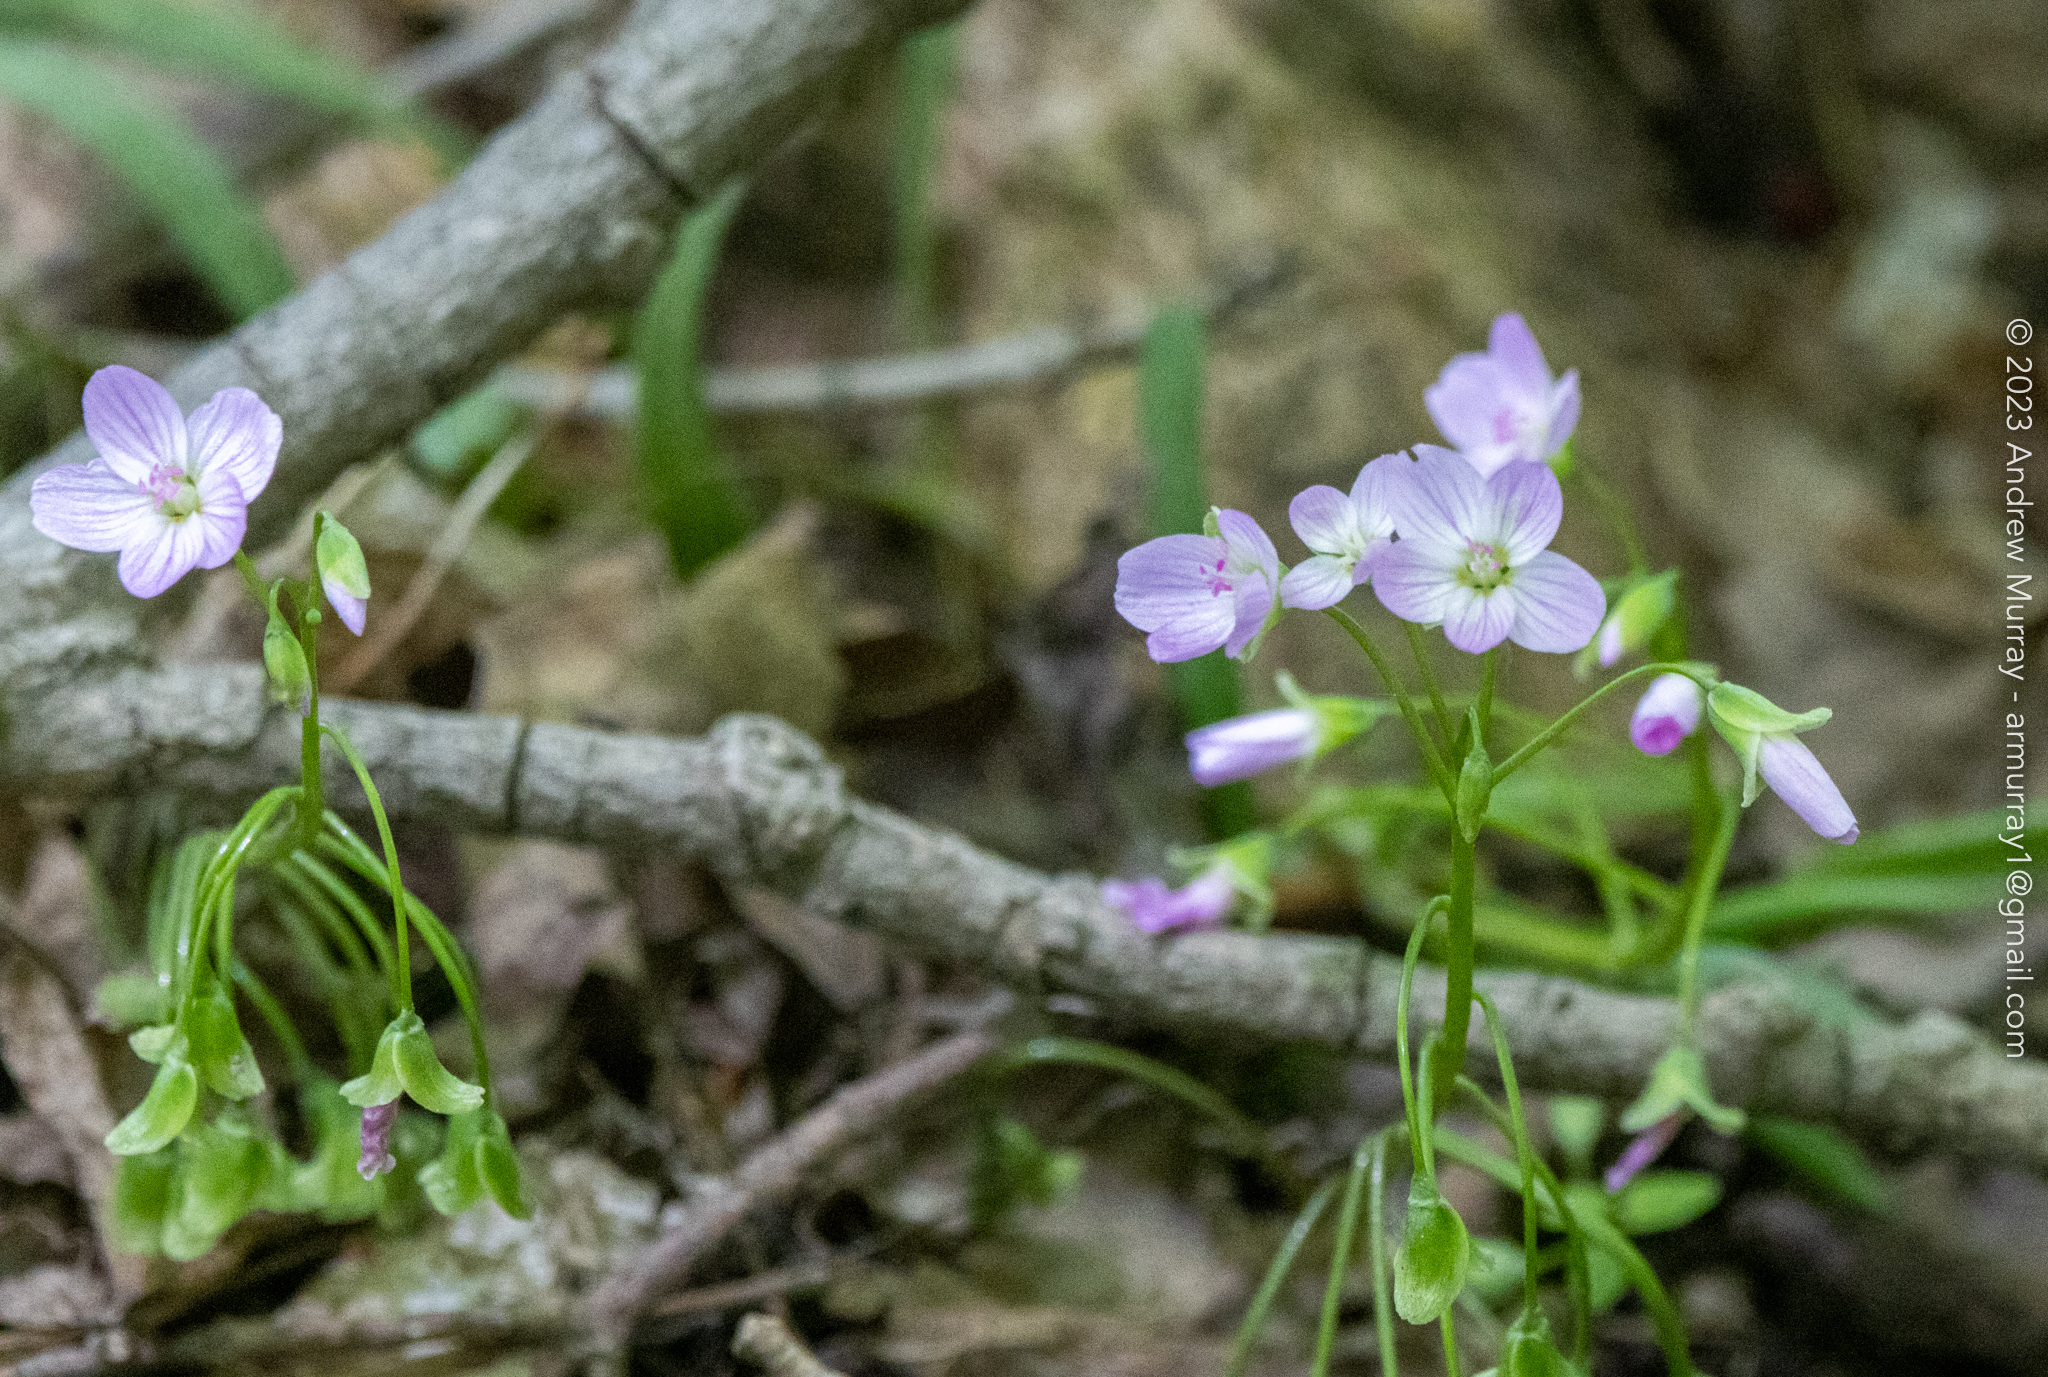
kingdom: Plantae
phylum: Tracheophyta
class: Magnoliopsida
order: Caryophyllales
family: Montiaceae
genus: Claytonia
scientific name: Claytonia virginica
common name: Virginia springbeauty
